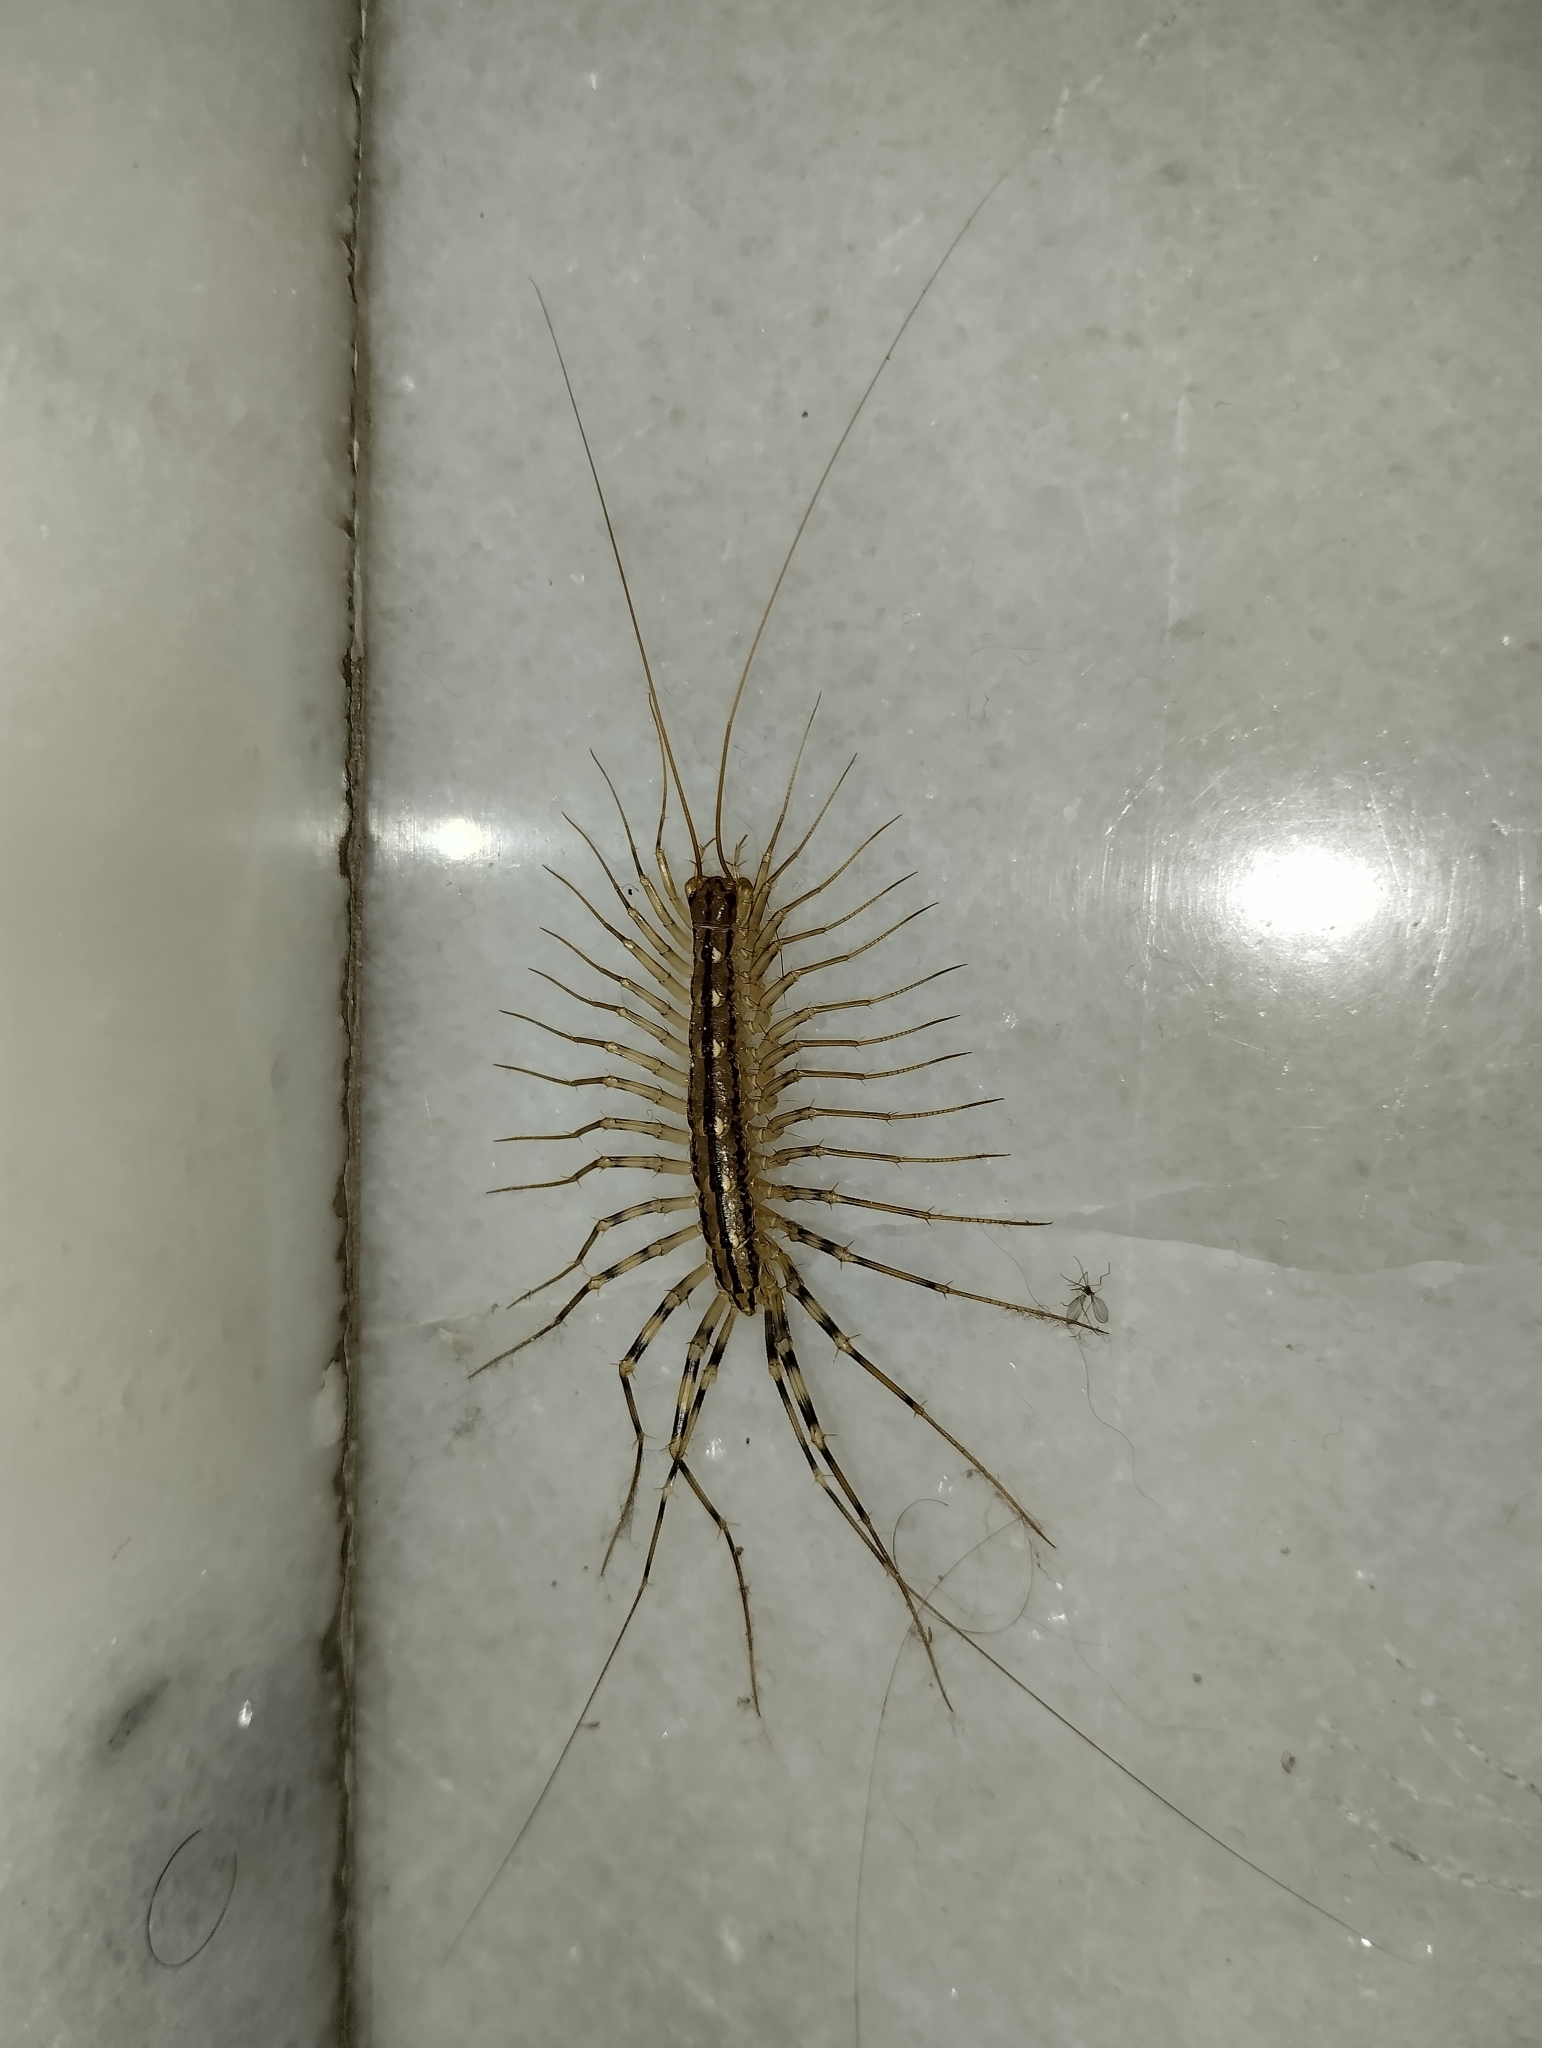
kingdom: Animalia
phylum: Arthropoda
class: Chilopoda
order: Scutigeromorpha
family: Scutigeridae
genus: Scutigera
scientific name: Scutigera coleoptrata
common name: House centipede
